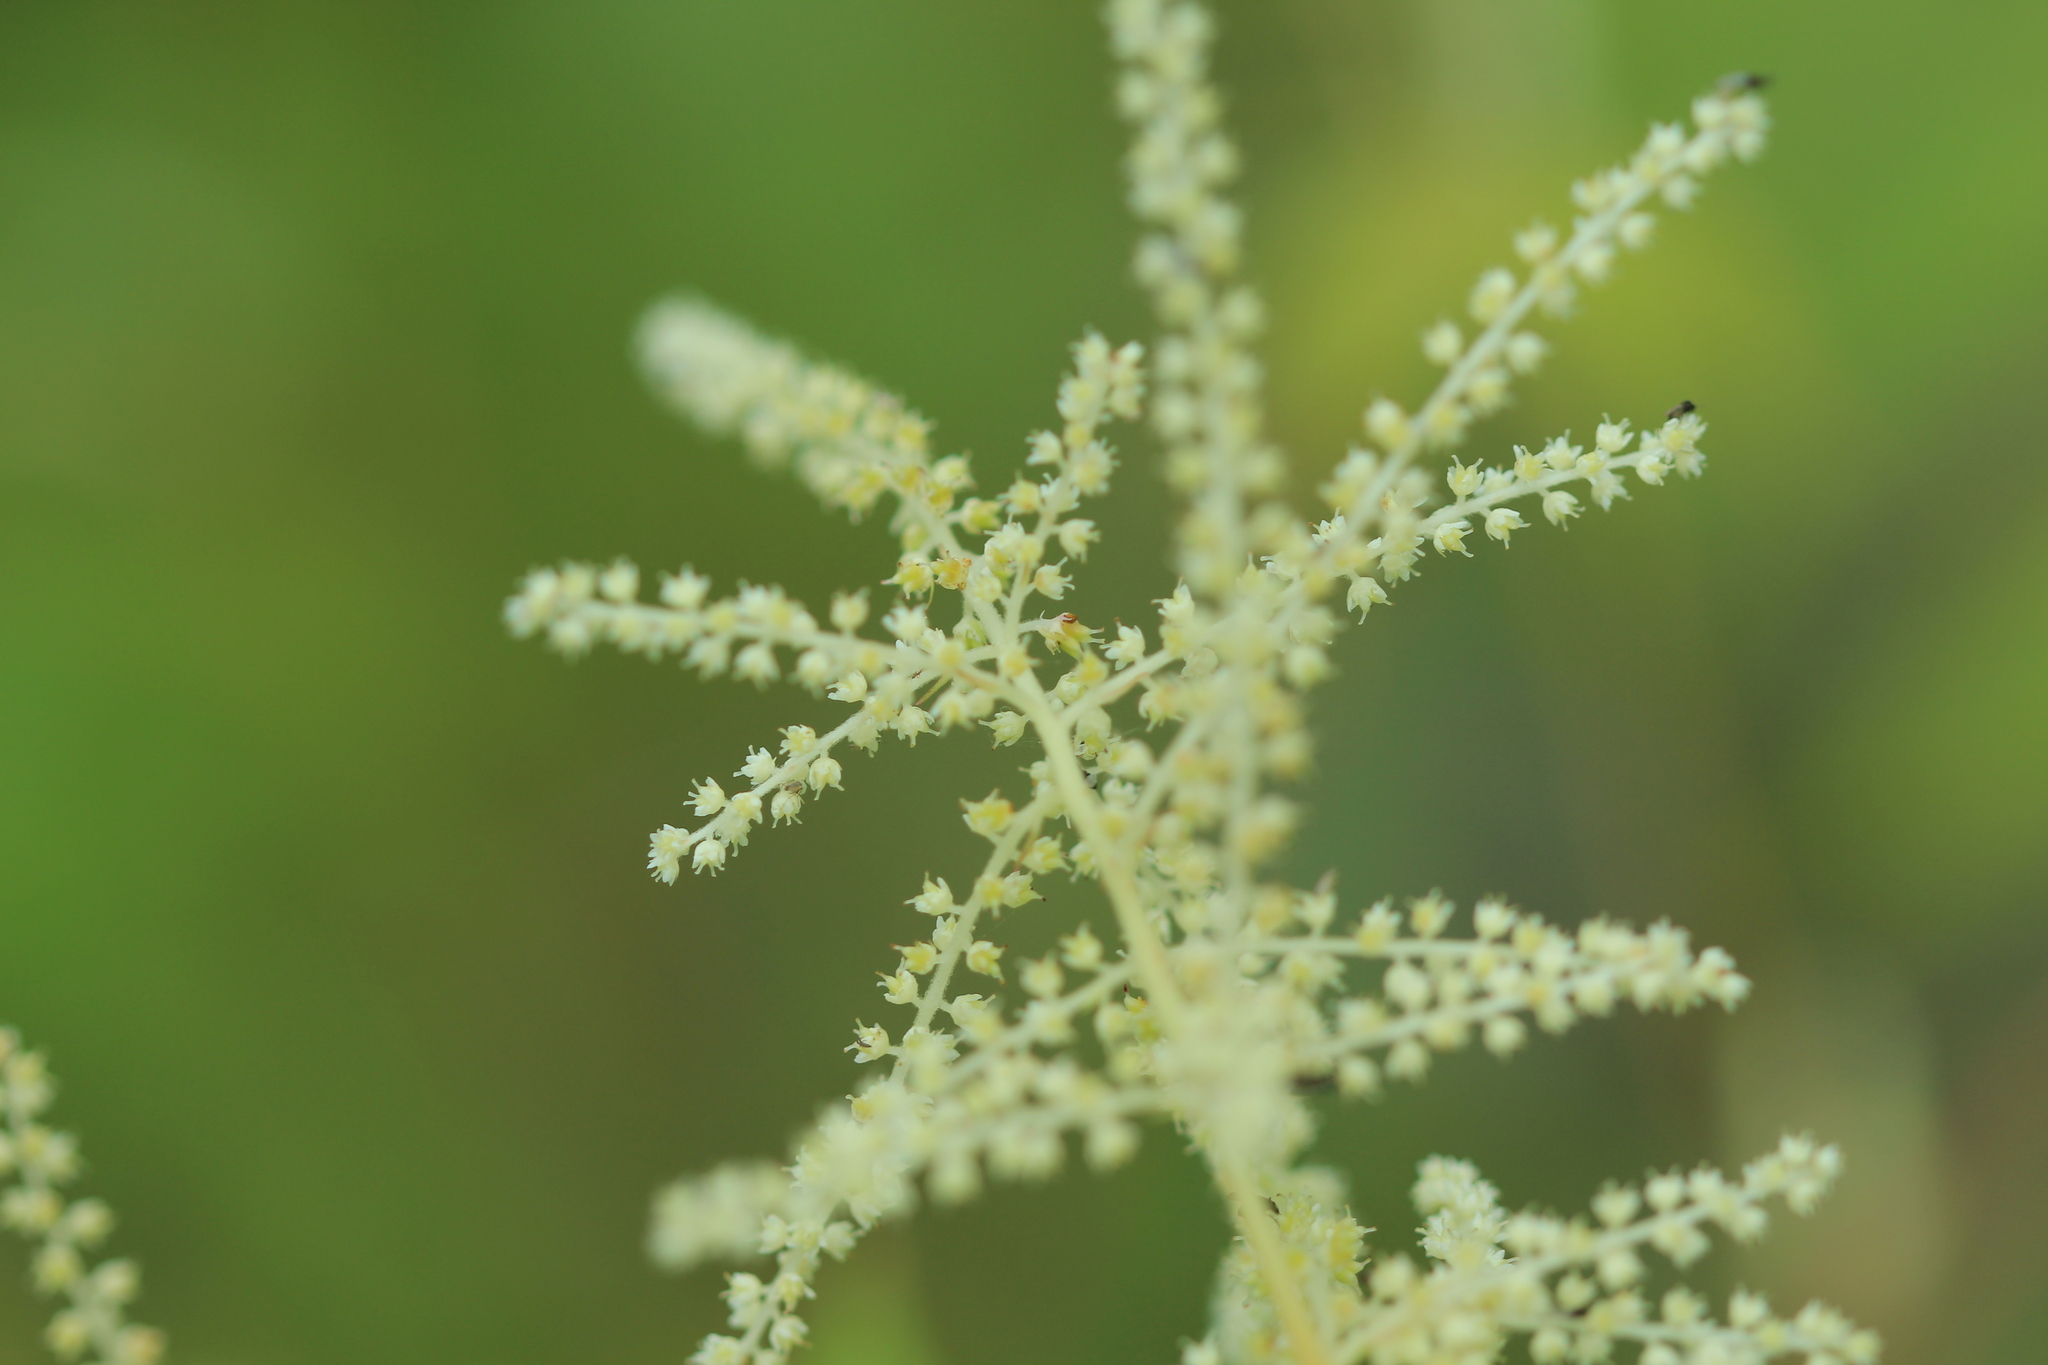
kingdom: Plantae
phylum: Tracheophyta
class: Magnoliopsida
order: Rosales
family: Rosaceae
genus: Aruncus
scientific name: Aruncus dioicus
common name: Buck's-beard
